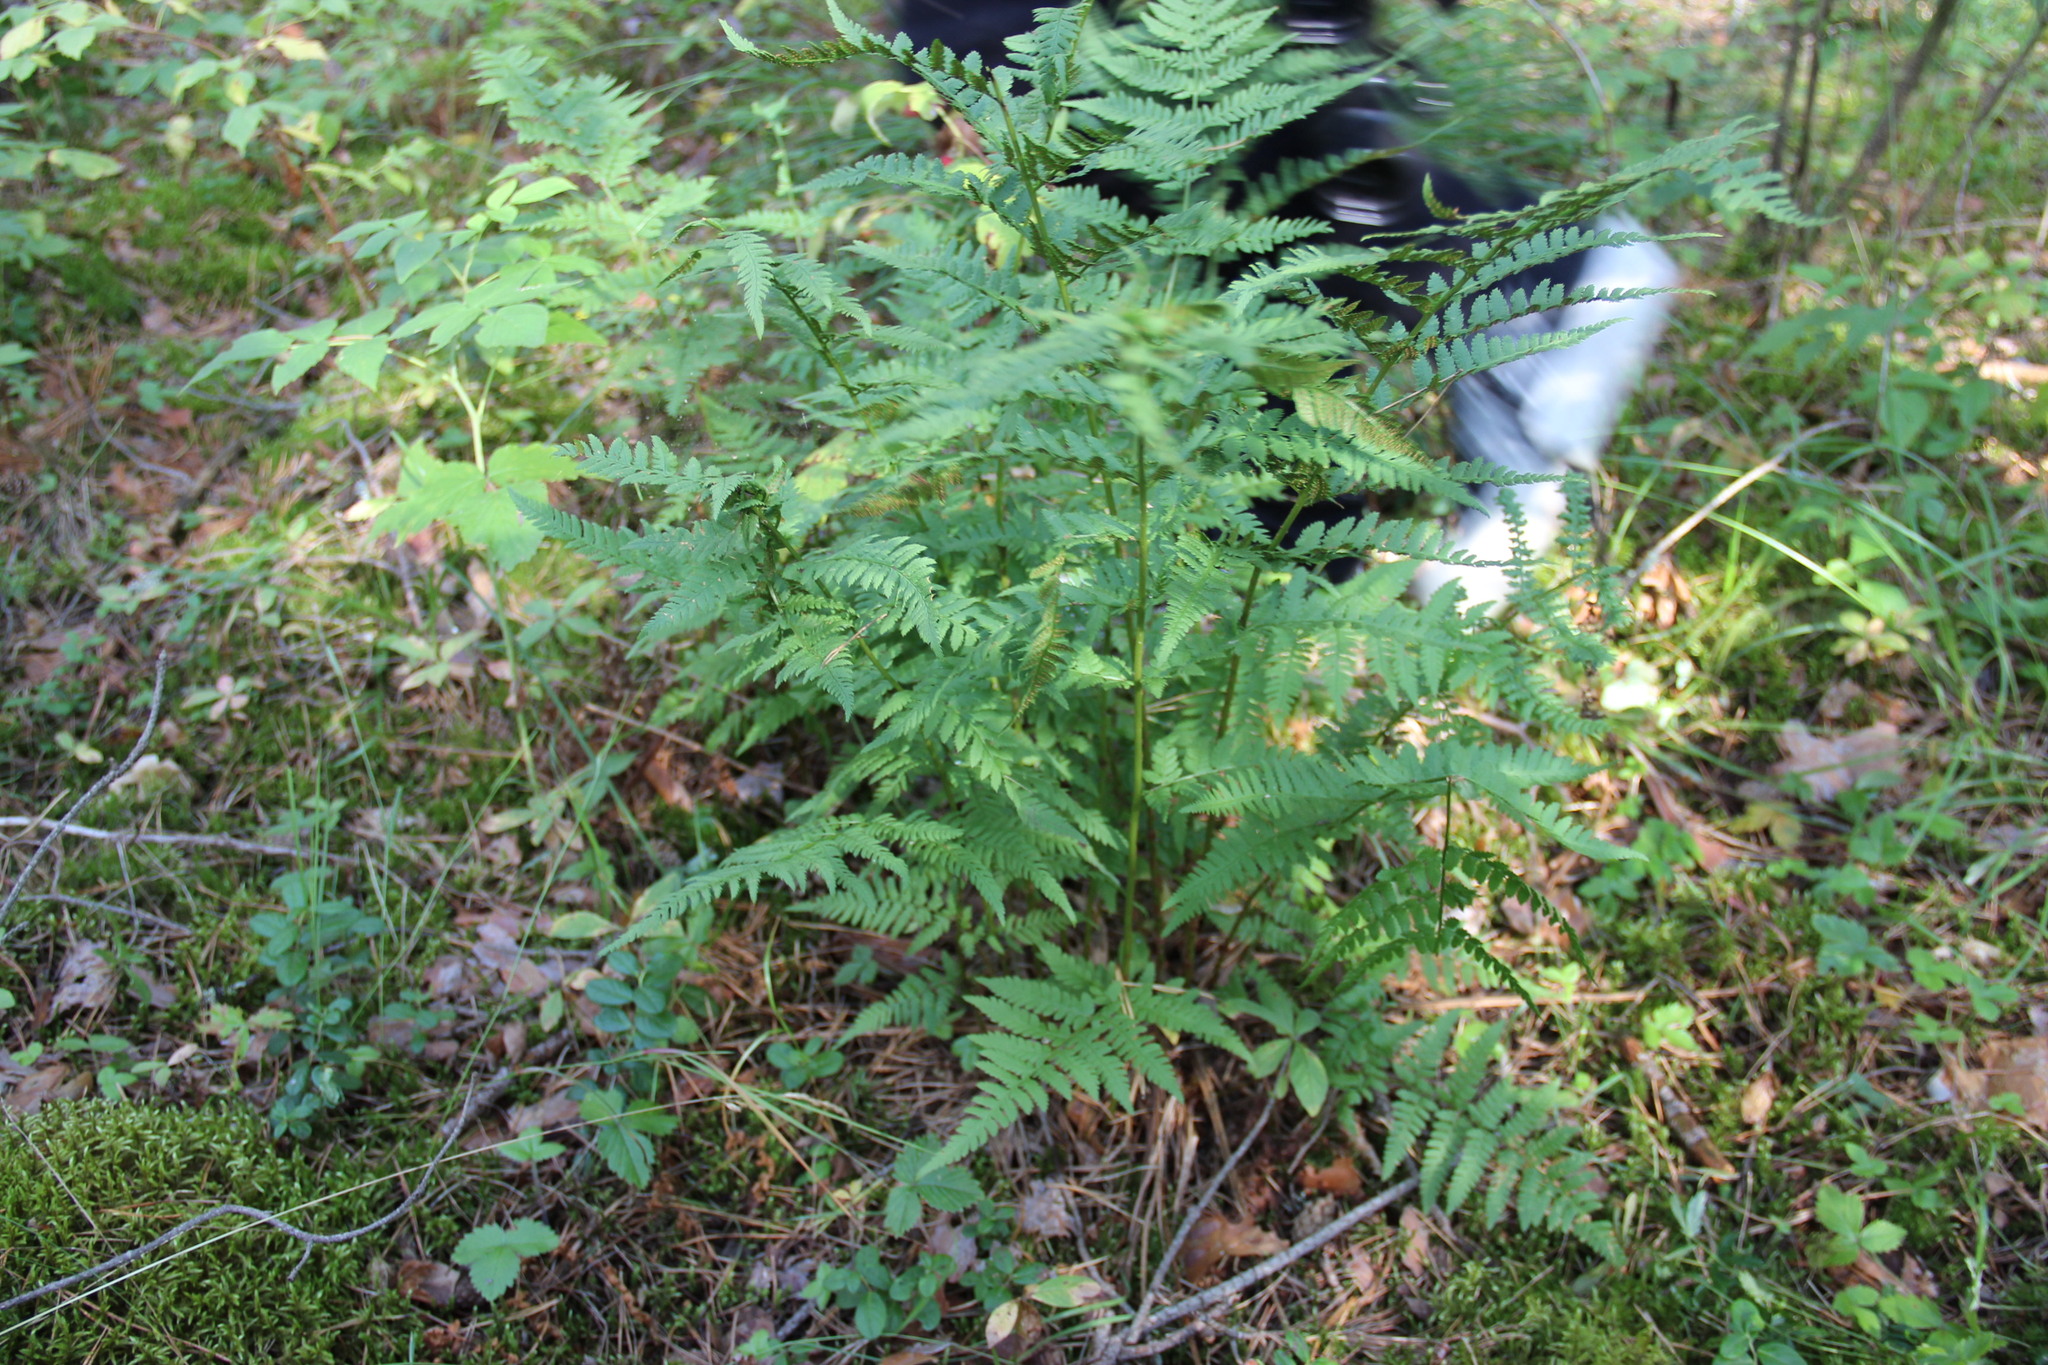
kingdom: Plantae
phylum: Tracheophyta
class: Polypodiopsida
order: Polypodiales
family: Dryopteridaceae
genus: Dryopteris
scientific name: Dryopteris carthusiana
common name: Narrow buckler-fern
